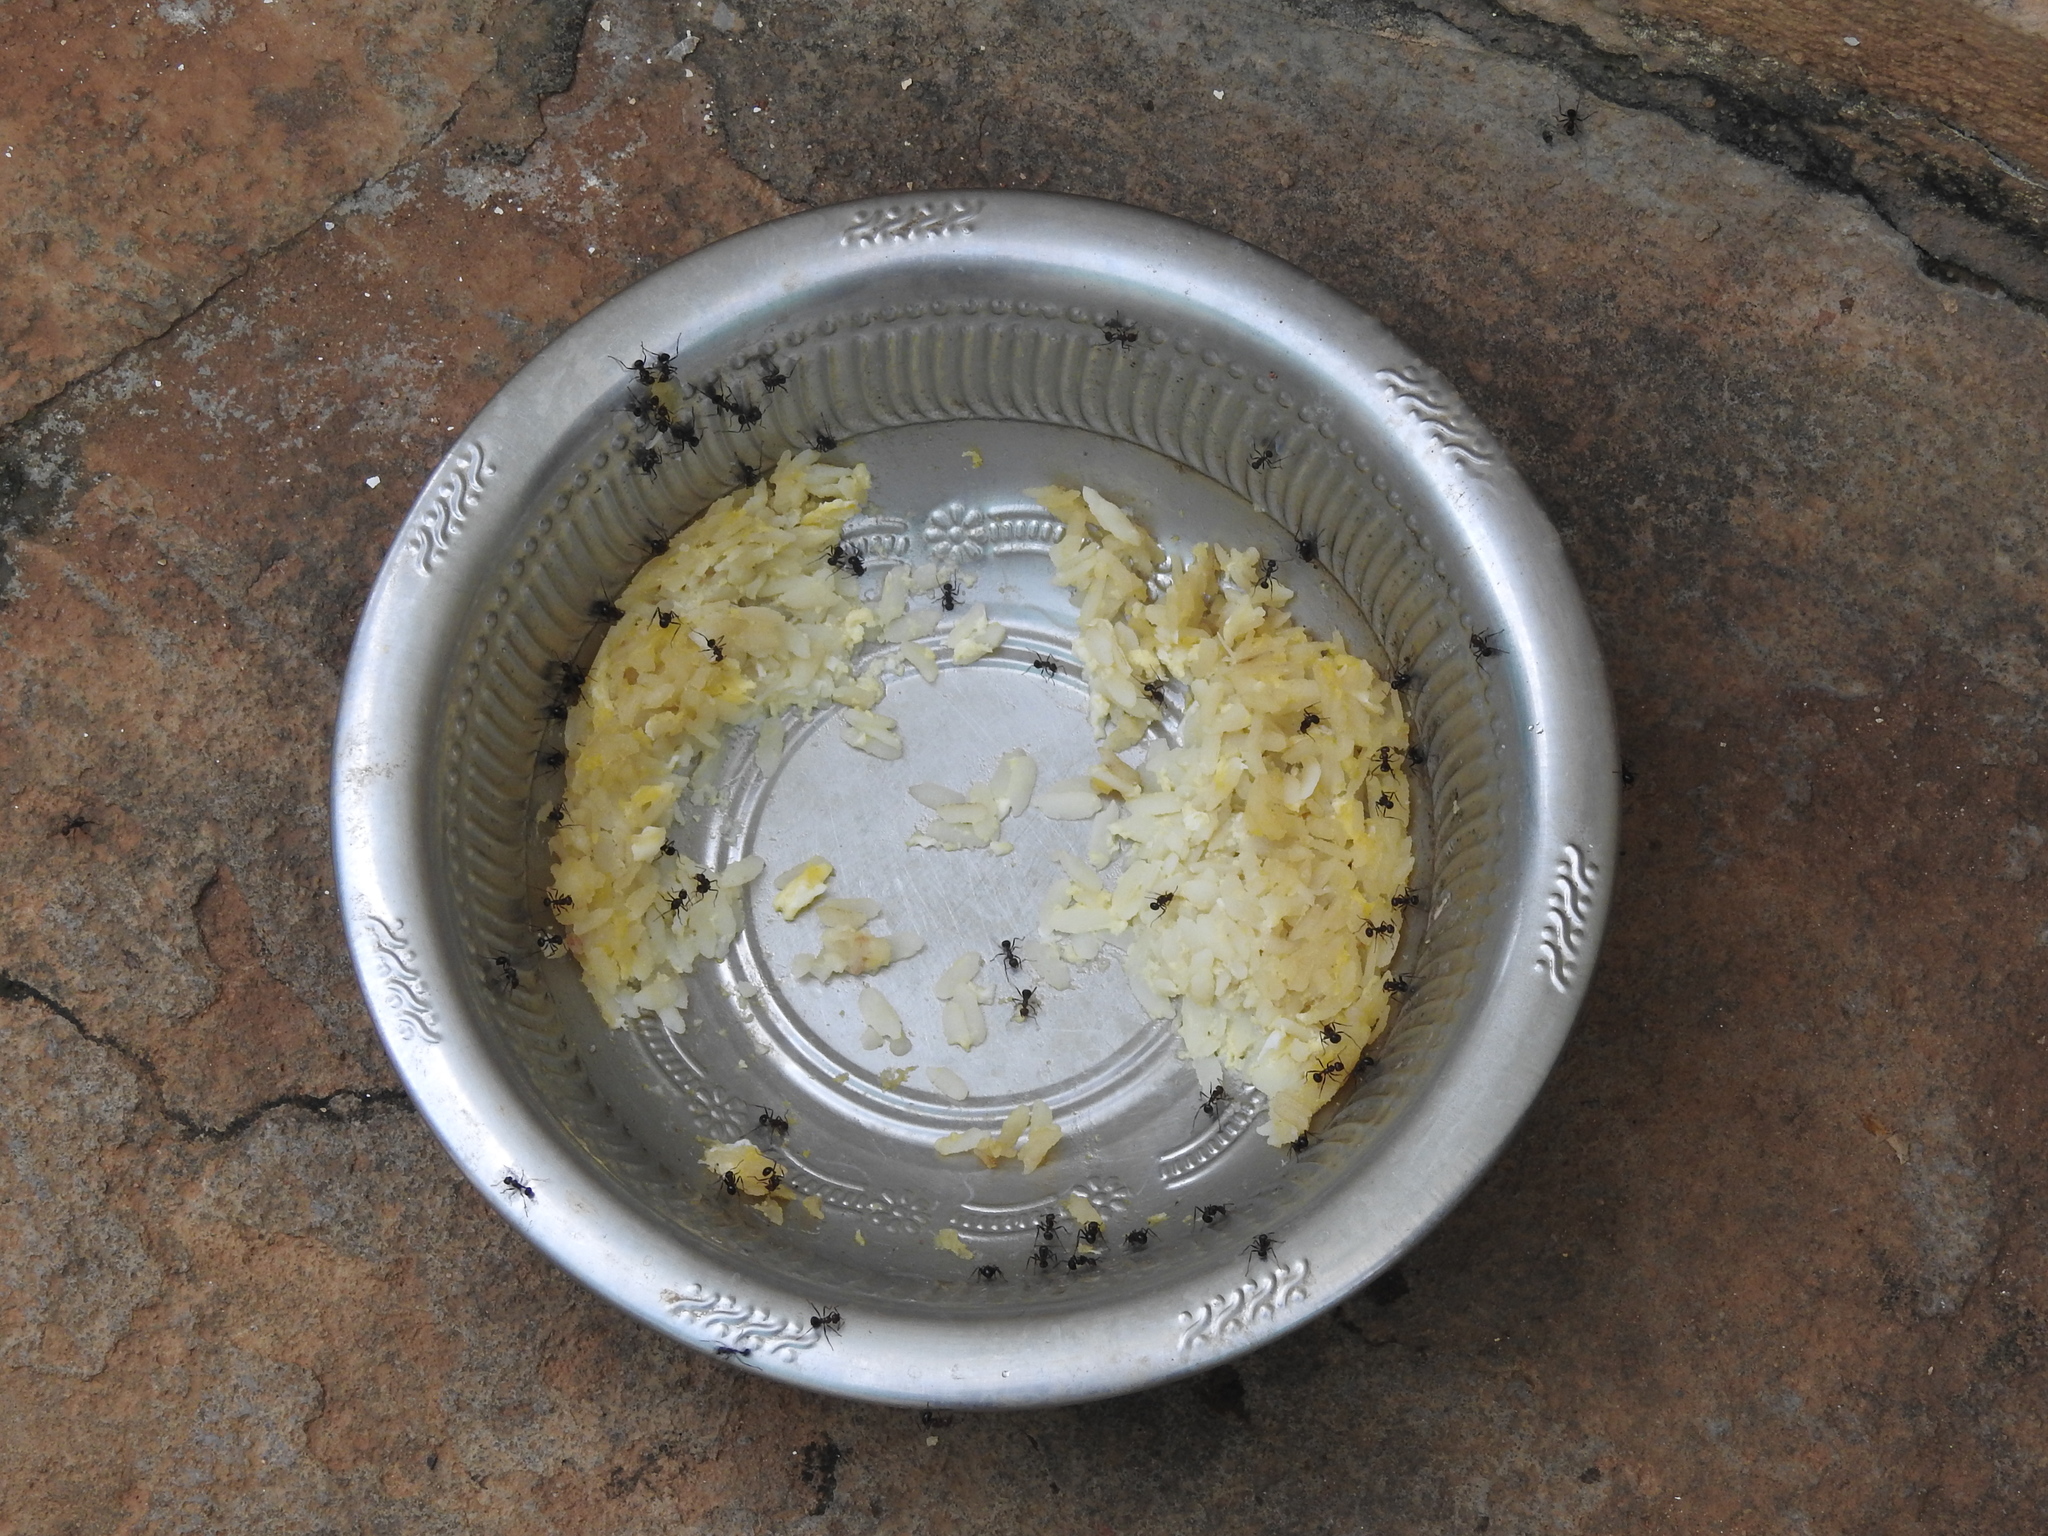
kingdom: Animalia
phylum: Arthropoda
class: Insecta
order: Hymenoptera
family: Formicidae
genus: Myrmicaria
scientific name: Myrmicaria brunnea
